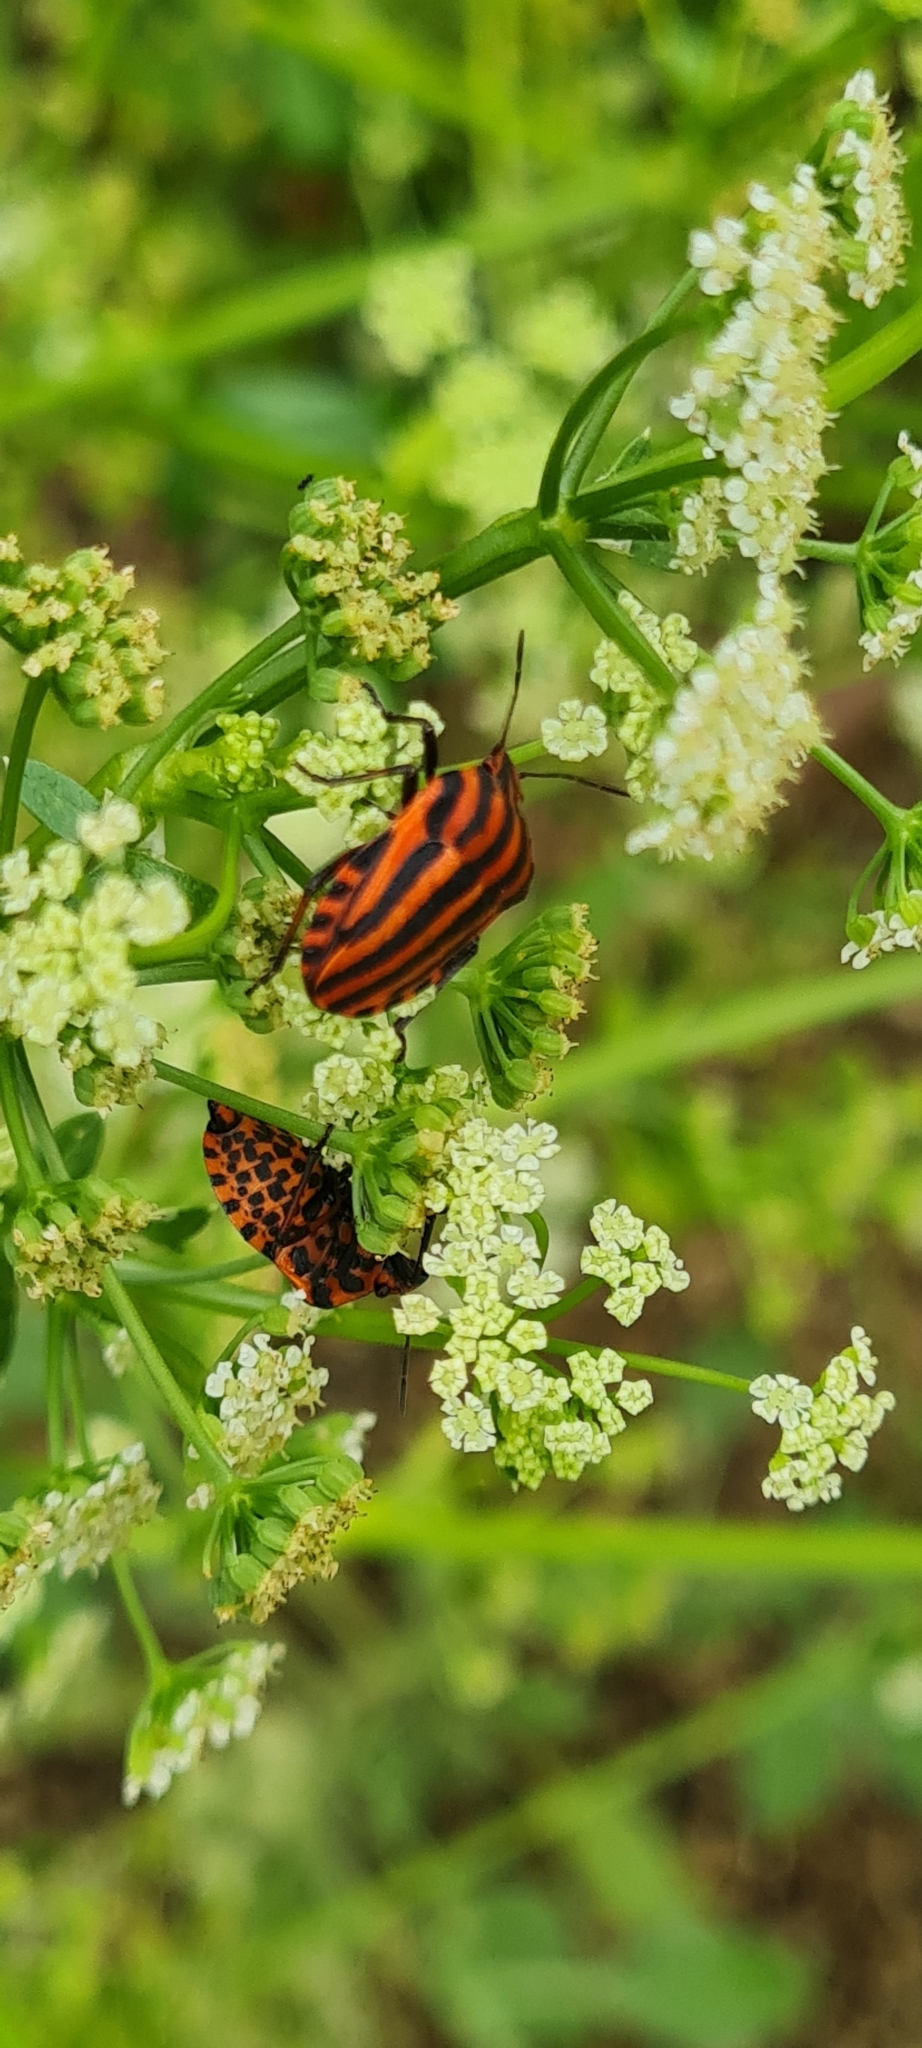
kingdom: Animalia
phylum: Arthropoda
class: Insecta
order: Hemiptera
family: Pentatomidae
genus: Graphosoma
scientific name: Graphosoma italicum
